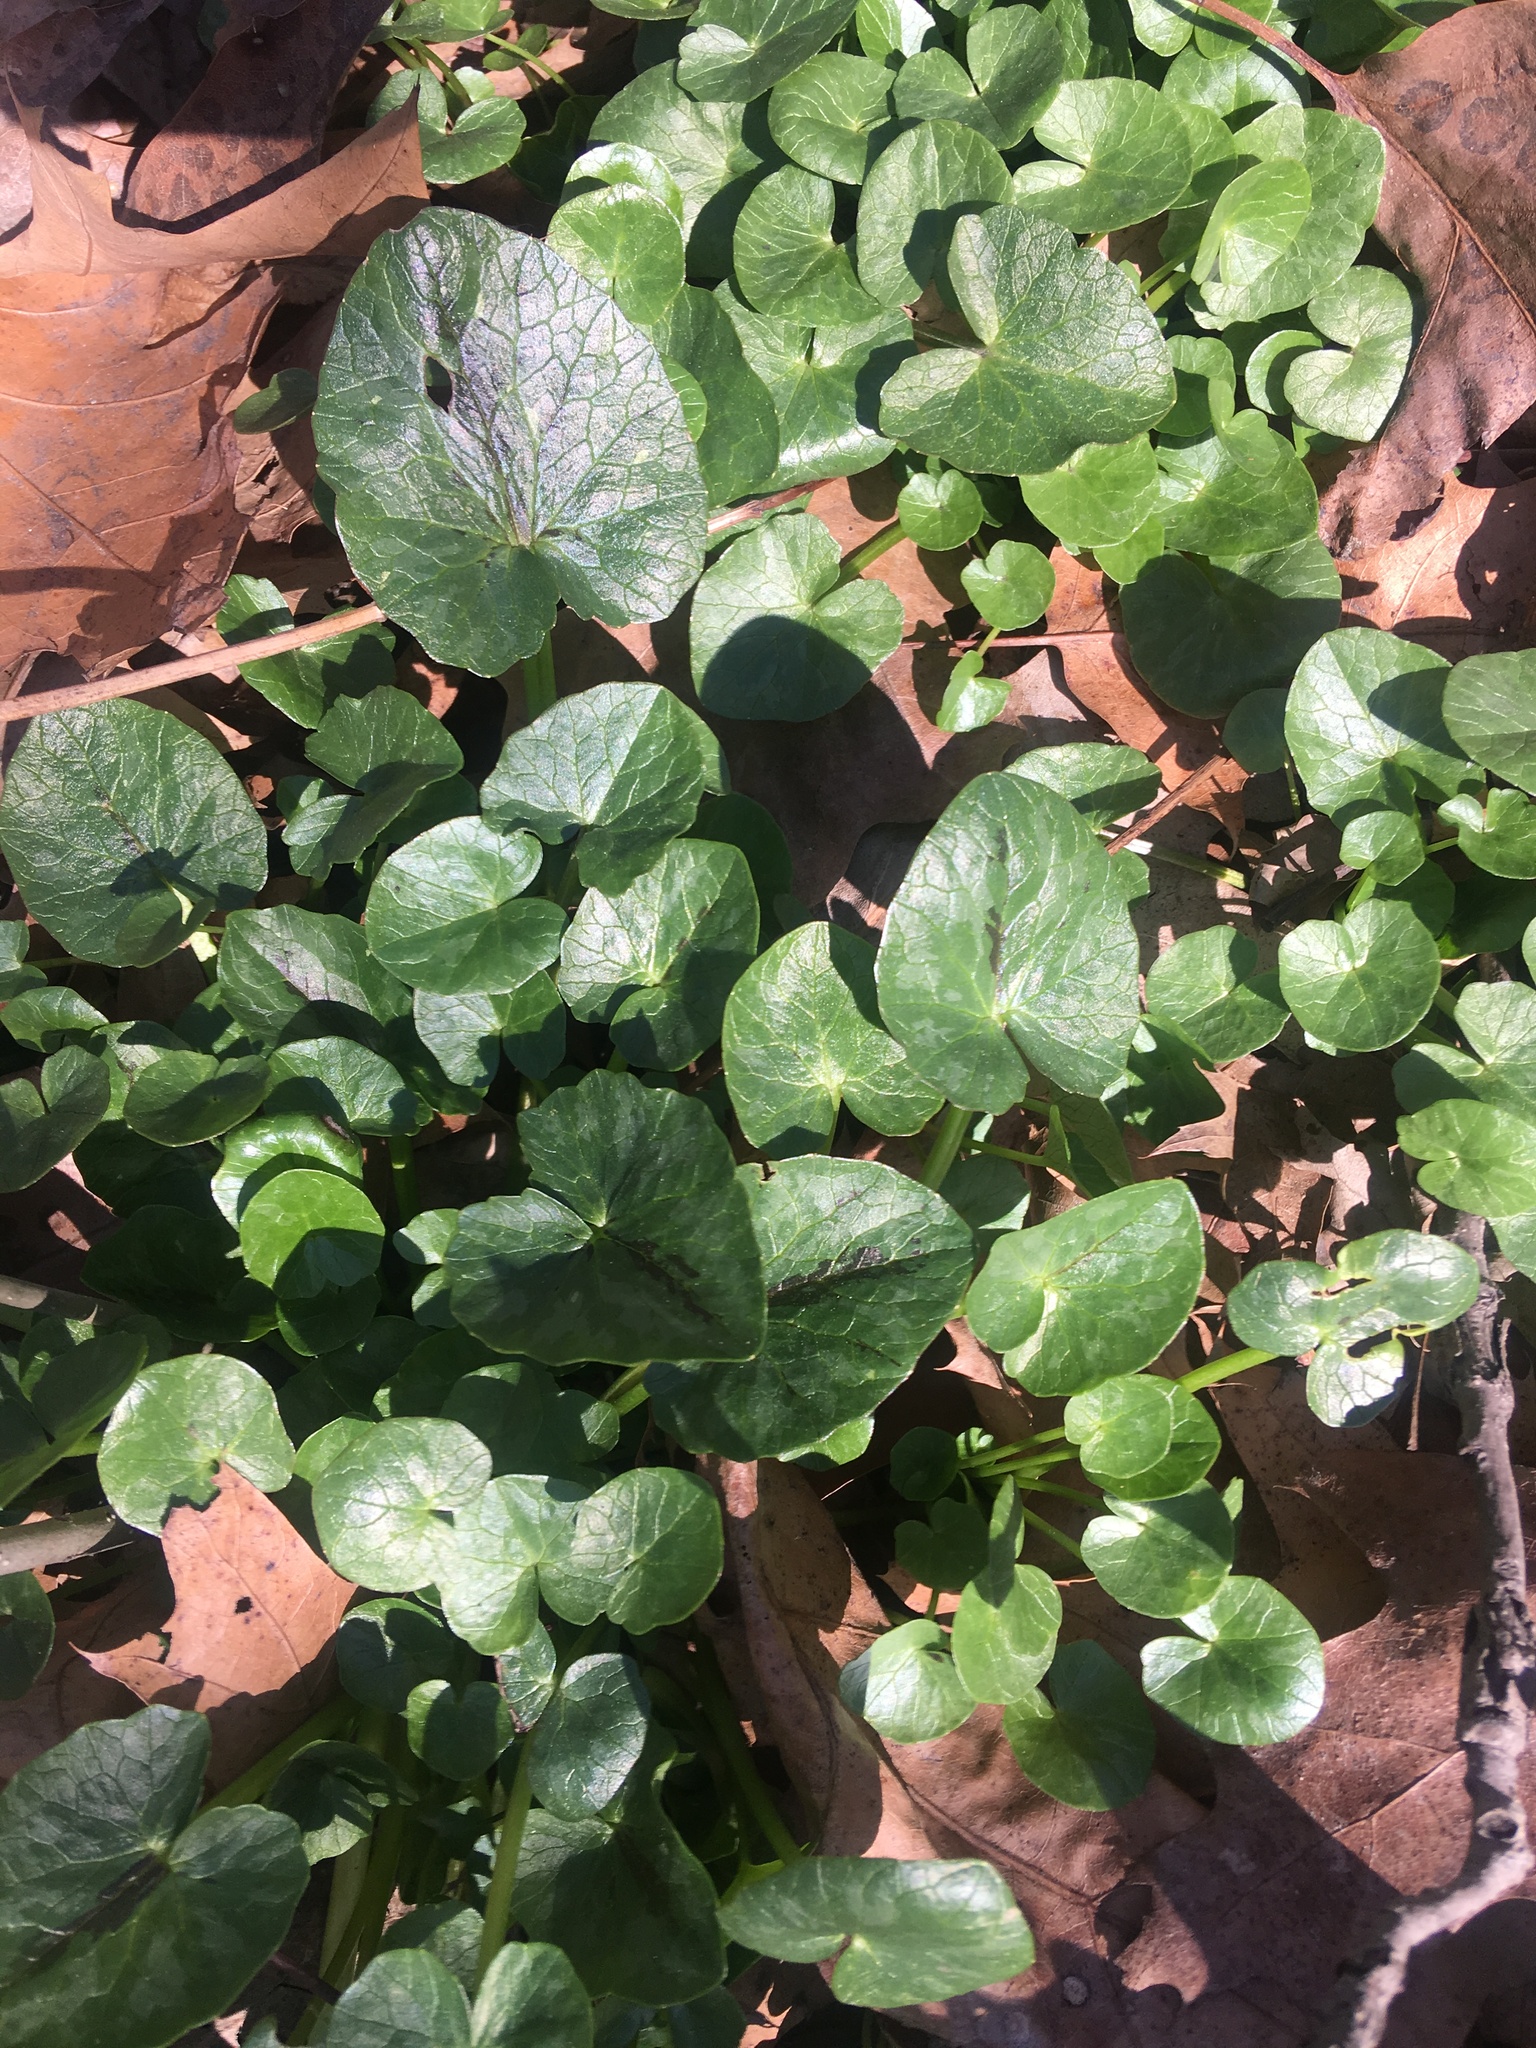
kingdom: Plantae
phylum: Tracheophyta
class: Magnoliopsida
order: Ranunculales
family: Ranunculaceae
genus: Ficaria
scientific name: Ficaria verna
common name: Lesser celandine
